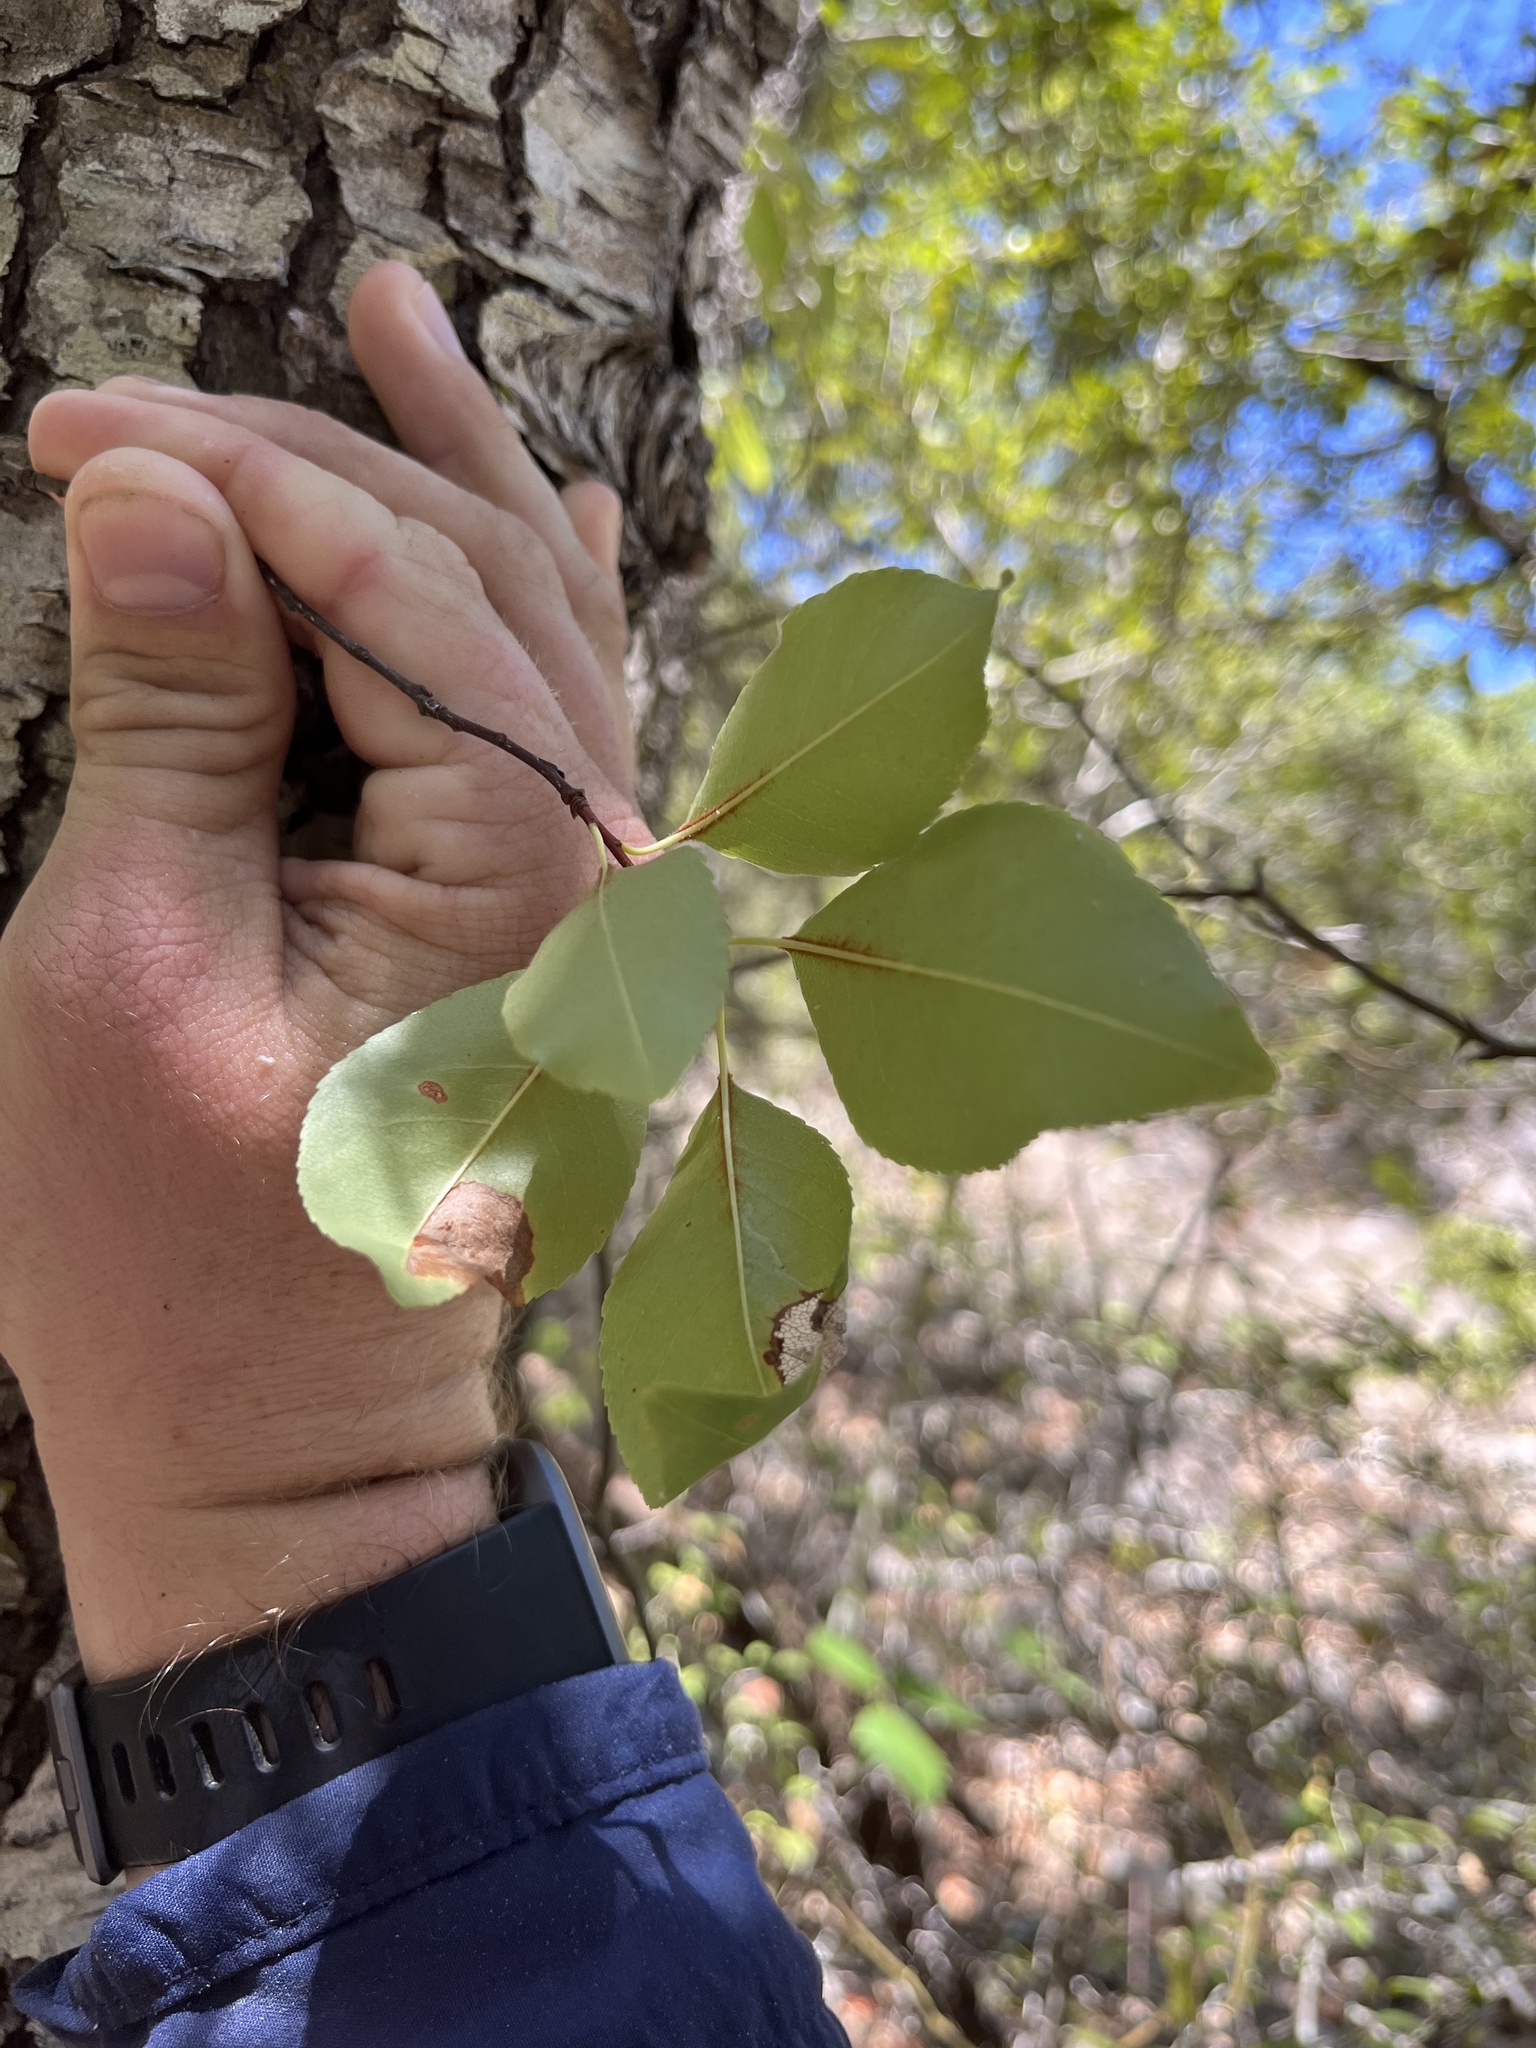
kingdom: Plantae
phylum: Tracheophyta
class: Magnoliopsida
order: Rosales
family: Rosaceae
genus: Prunus
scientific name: Prunus serotina
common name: Black cherry
